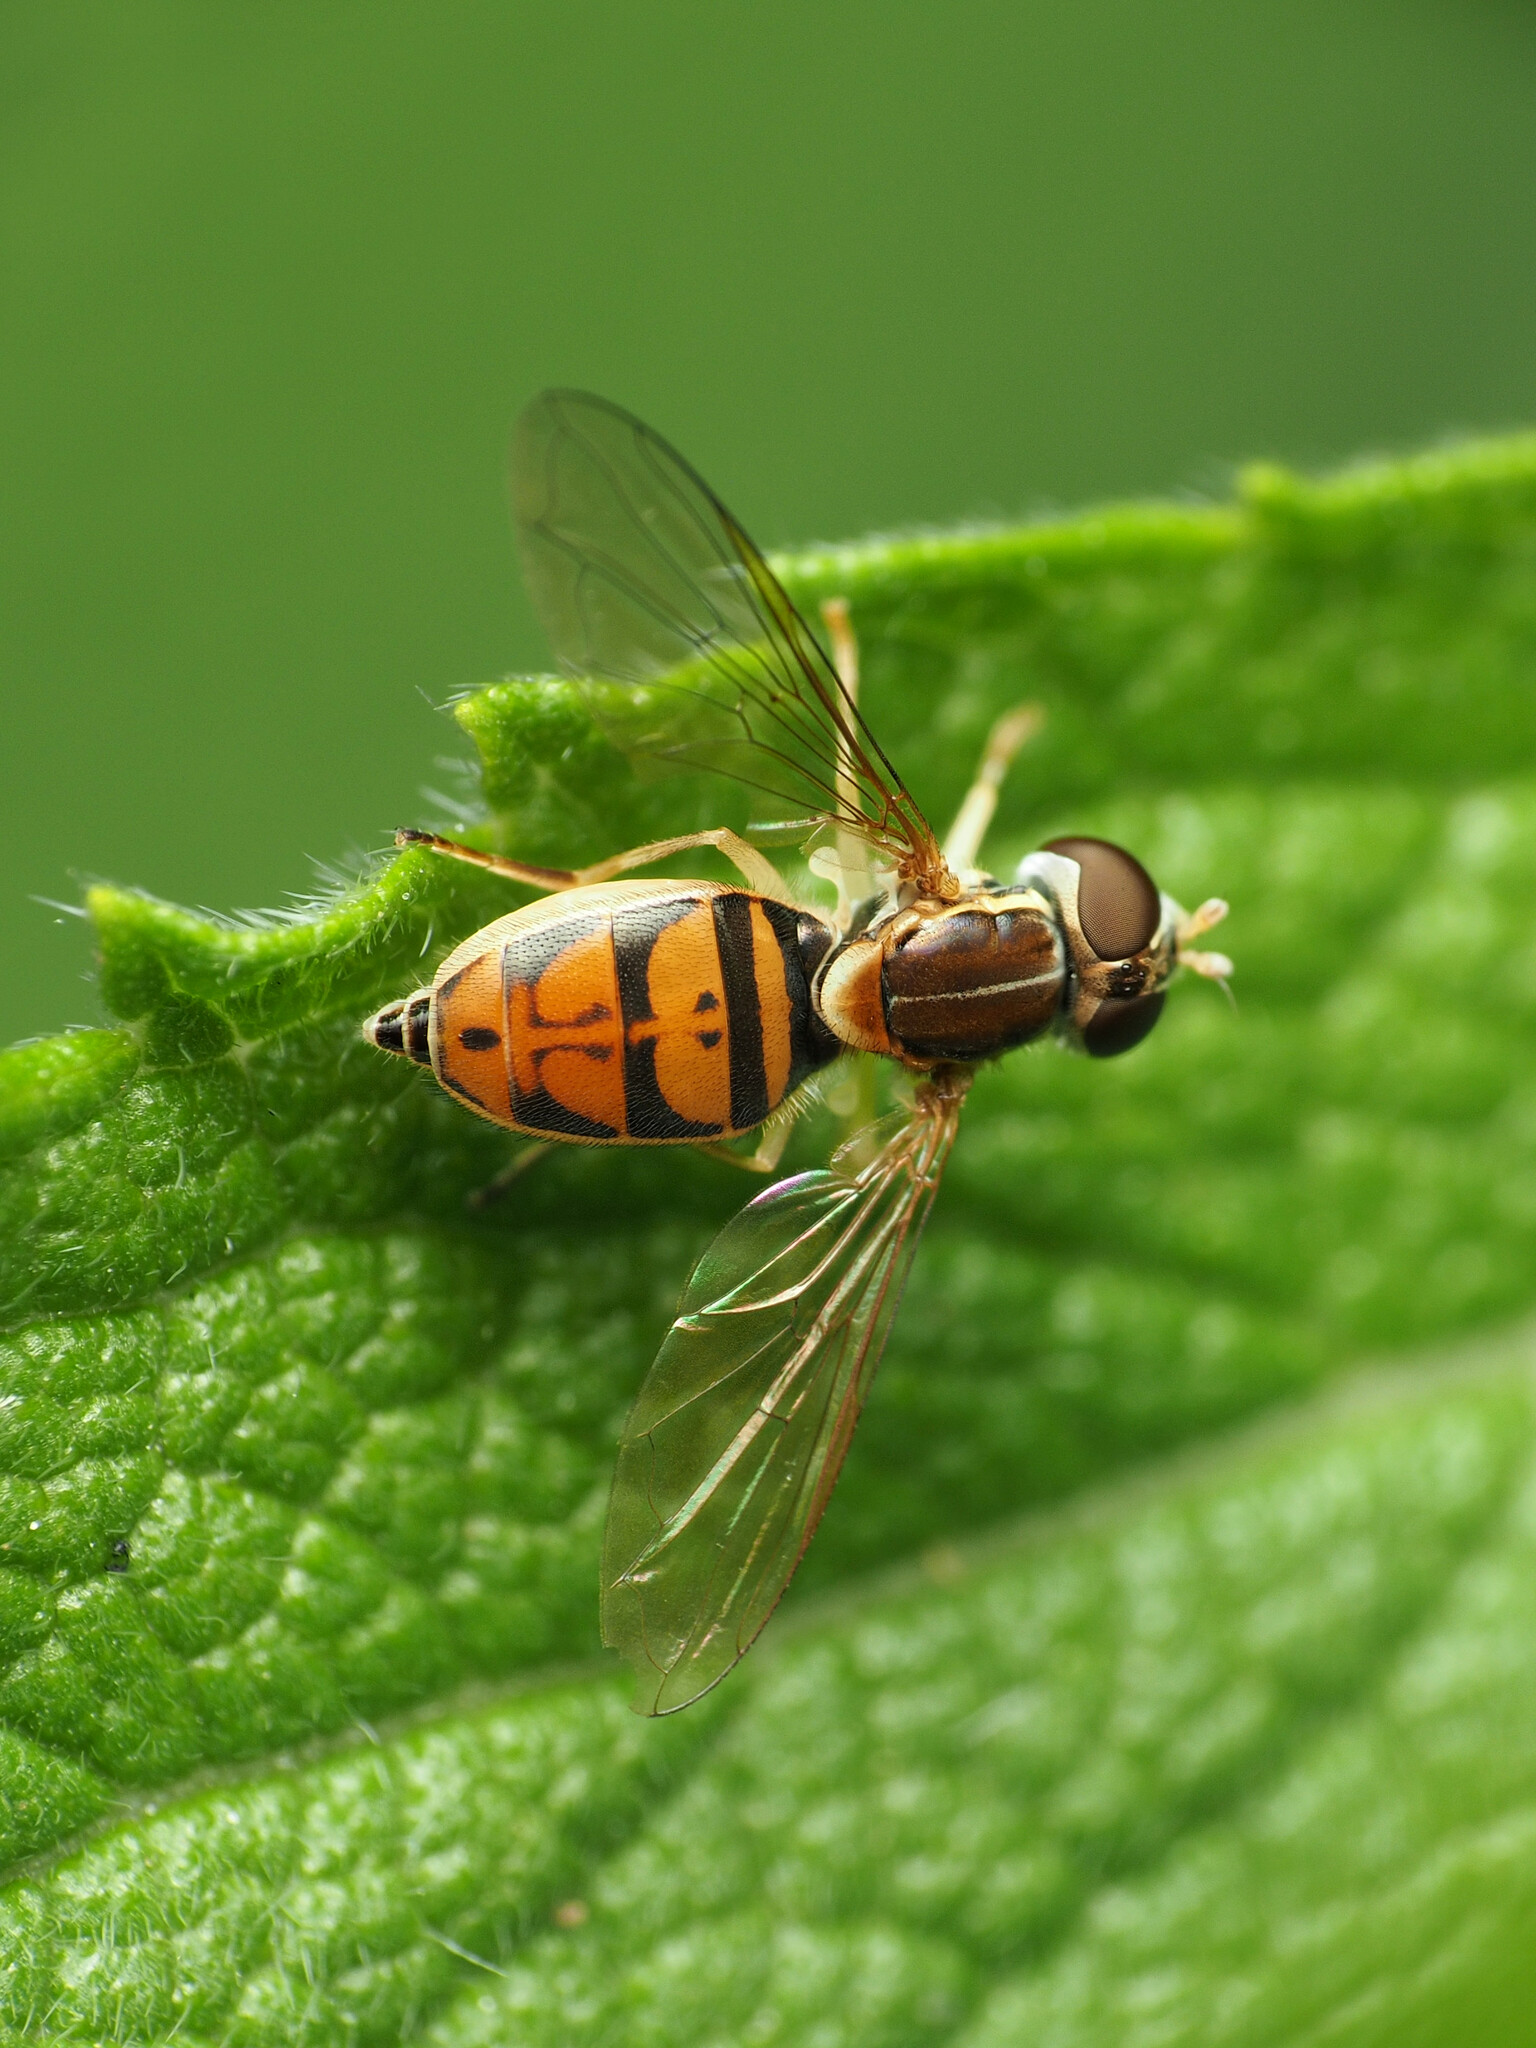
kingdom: Animalia
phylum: Arthropoda
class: Insecta
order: Diptera
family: Syrphidae
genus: Toxomerus
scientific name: Toxomerus marginatus
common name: Syrphid fly
